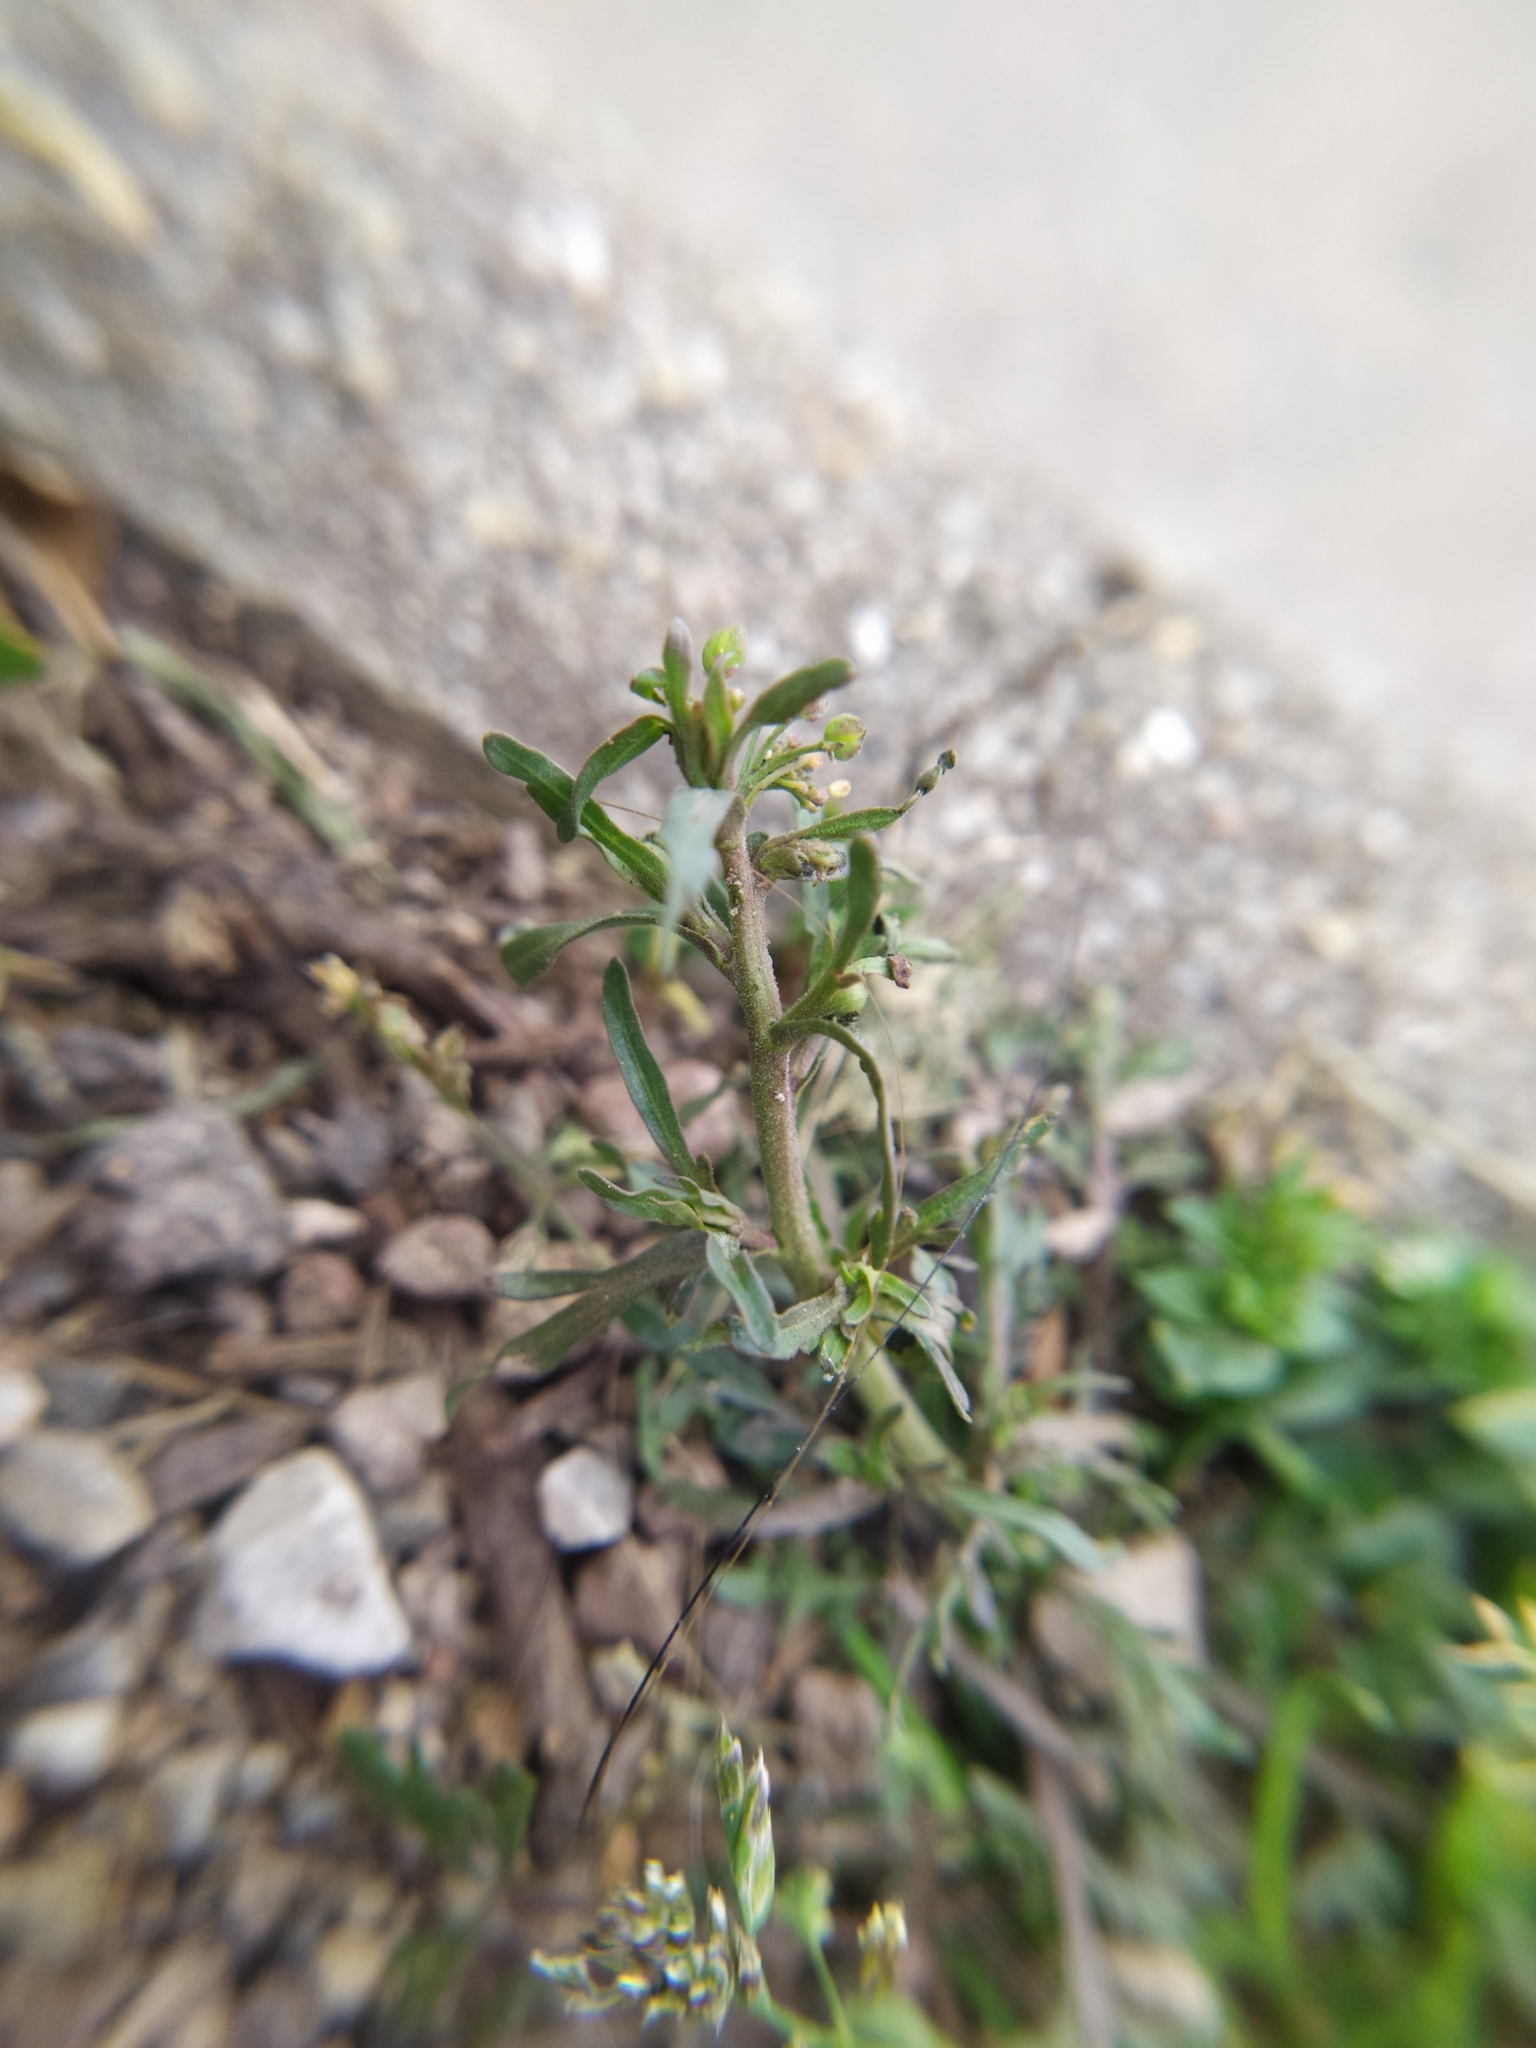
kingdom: Plantae
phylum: Tracheophyta
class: Magnoliopsida
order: Brassicales
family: Brassicaceae
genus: Lepidium
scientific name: Lepidium ruderale
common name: Narrow-leaved pepperwort
